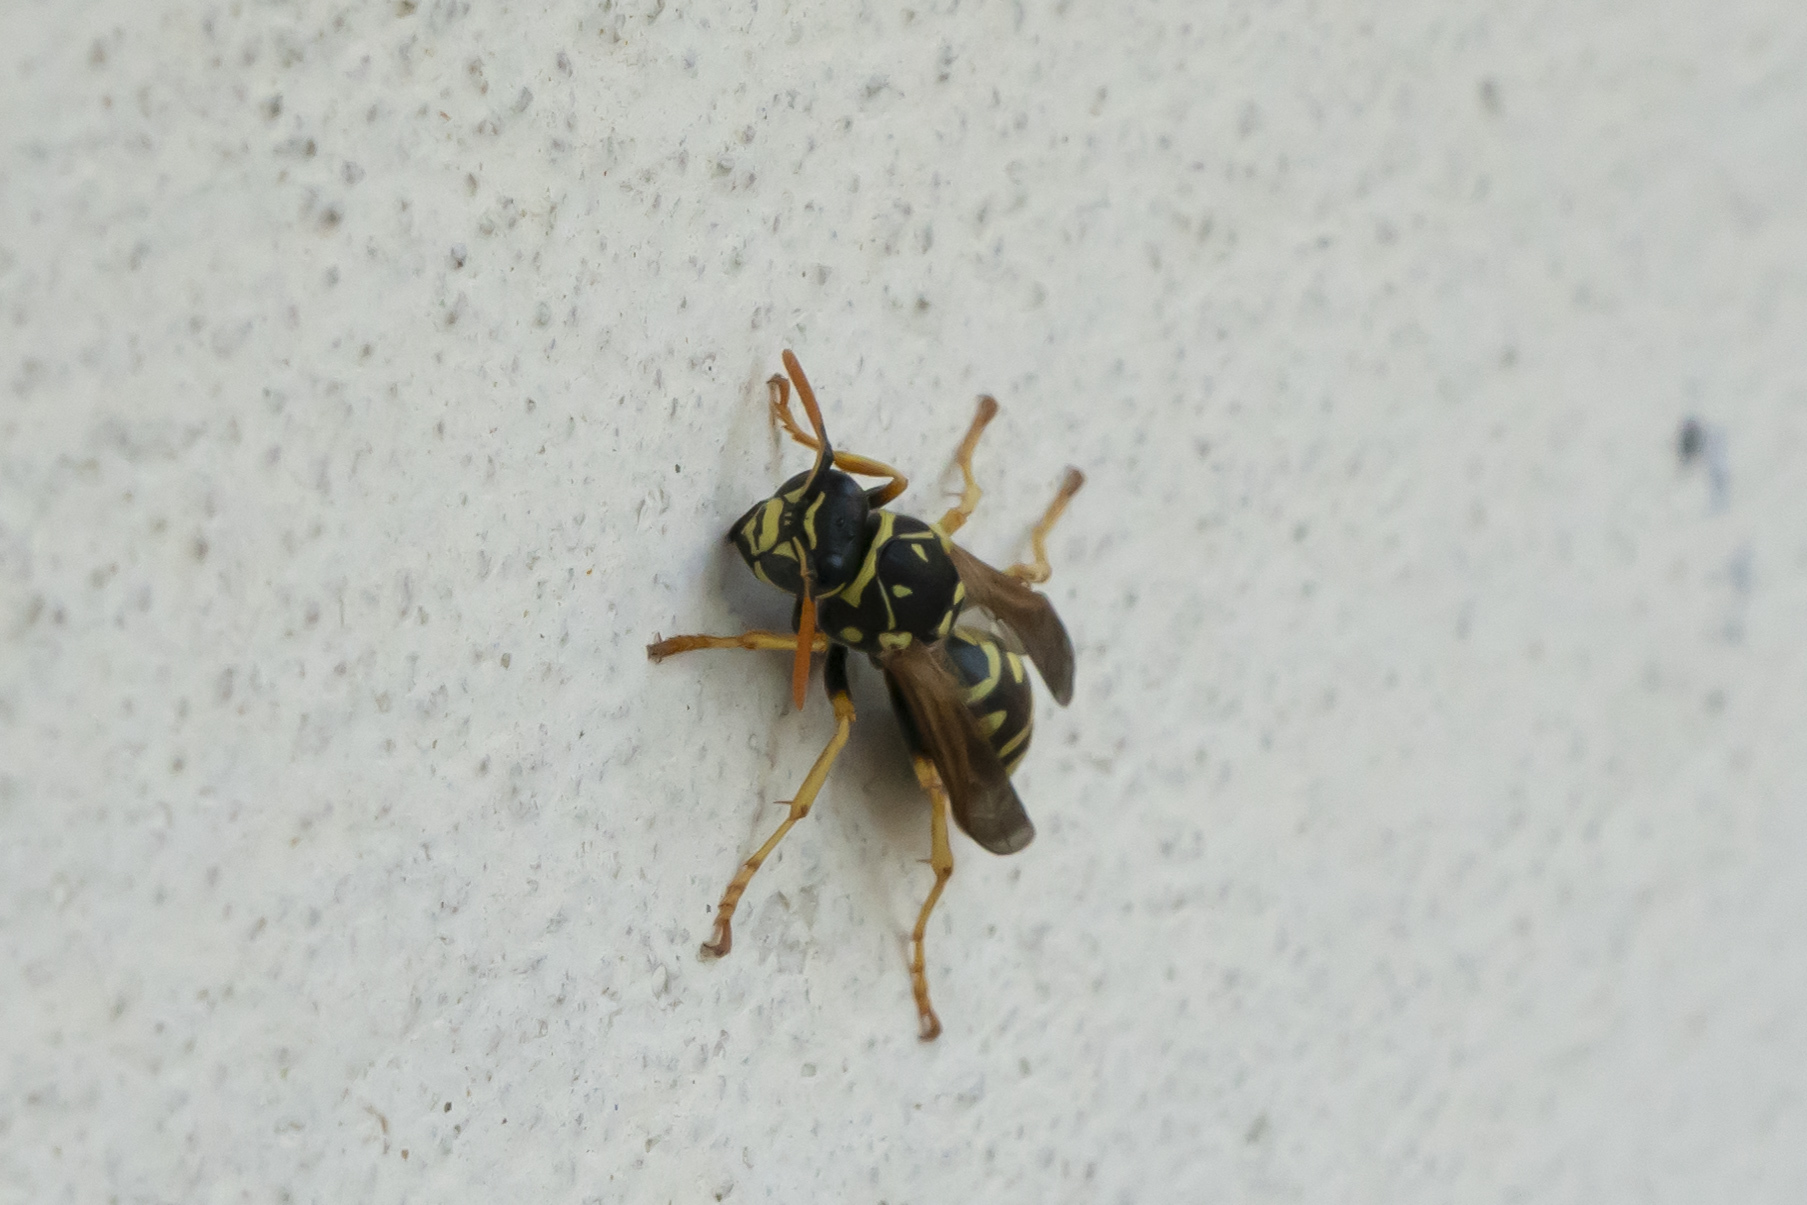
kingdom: Animalia
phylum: Arthropoda
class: Insecta
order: Hymenoptera
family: Eumenidae
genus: Polistes
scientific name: Polistes dominula
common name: Paper wasp
